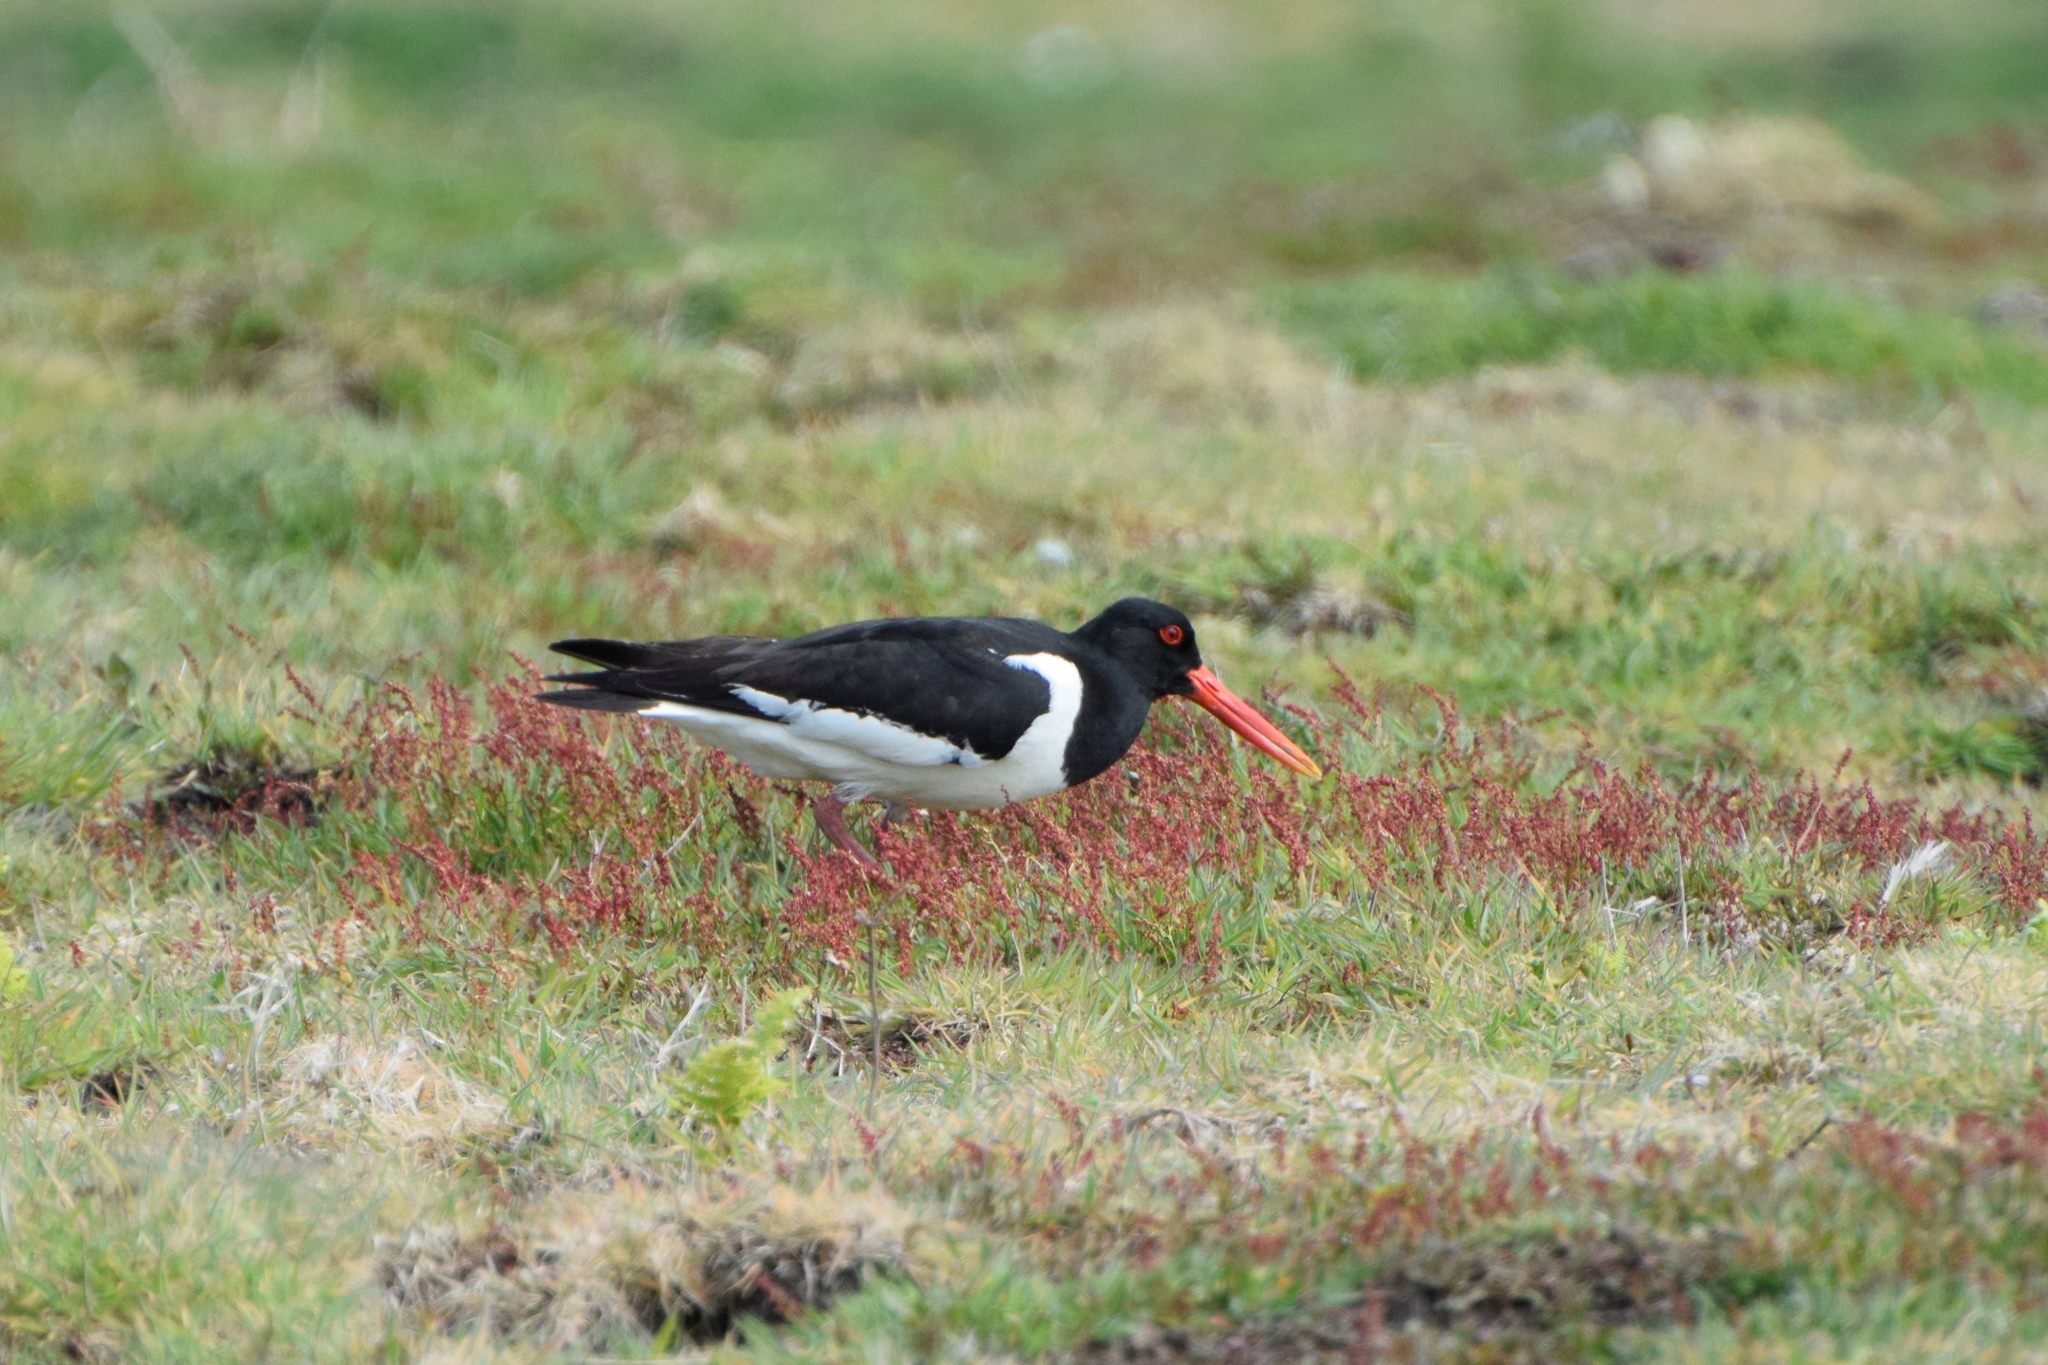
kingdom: Animalia
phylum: Chordata
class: Aves
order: Charadriiformes
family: Haematopodidae
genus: Haematopus
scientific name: Haematopus ostralegus
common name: Eurasian oystercatcher
